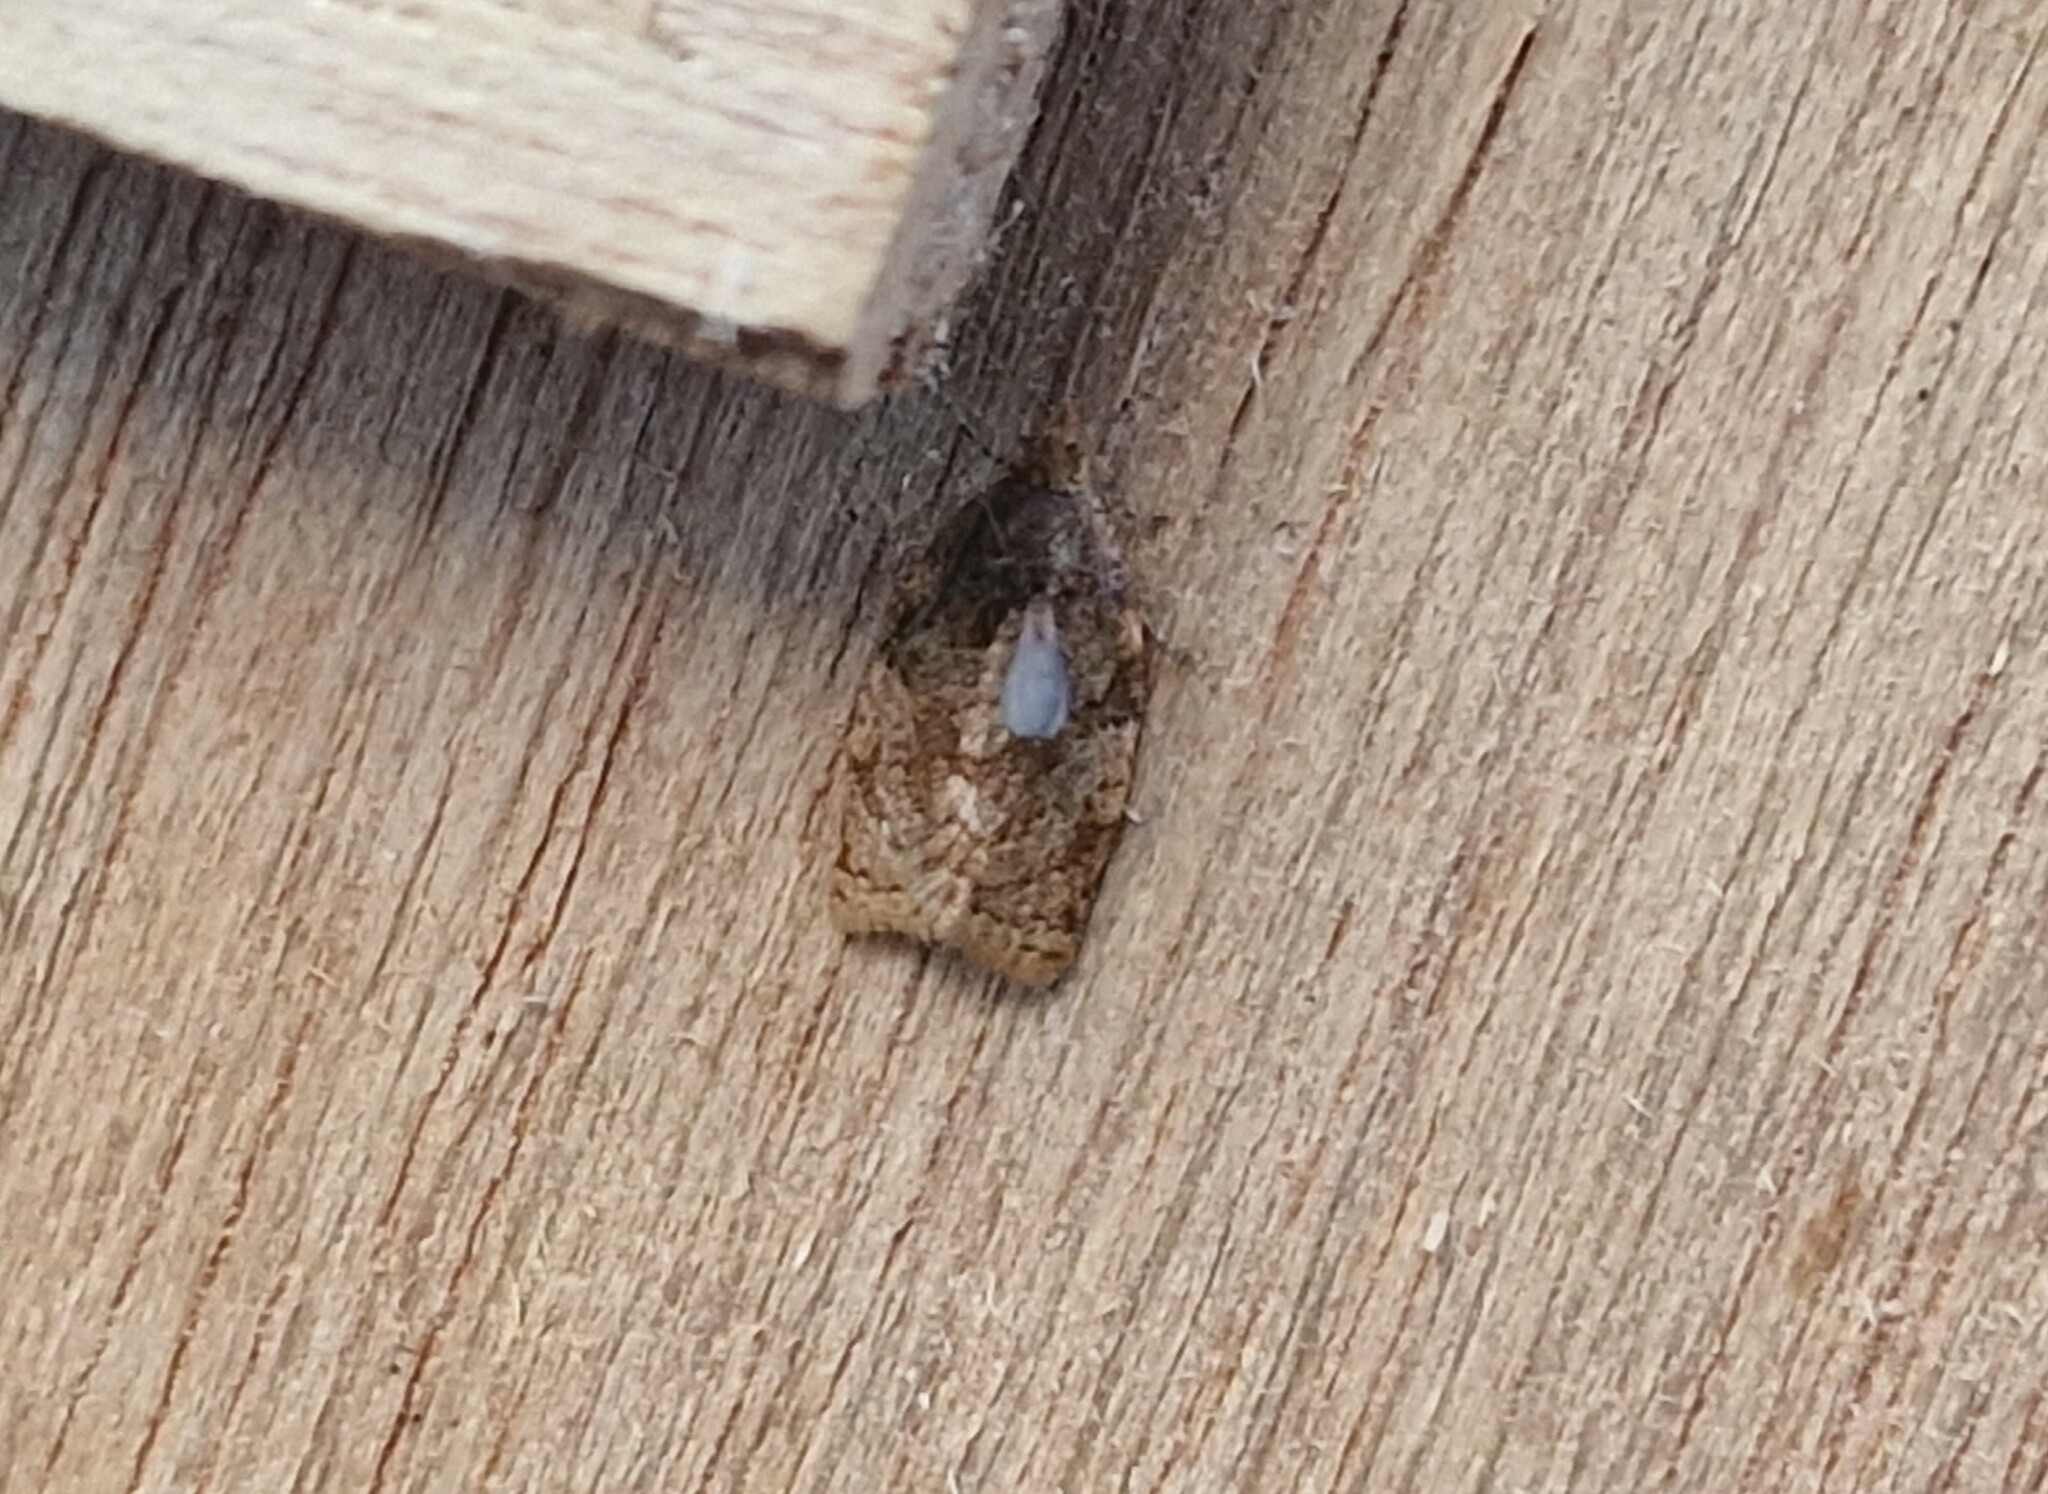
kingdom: Animalia
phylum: Arthropoda
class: Insecta
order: Lepidoptera
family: Tortricidae
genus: Adoxophyes
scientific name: Adoxophyes orana
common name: Summer fruit tortrix
